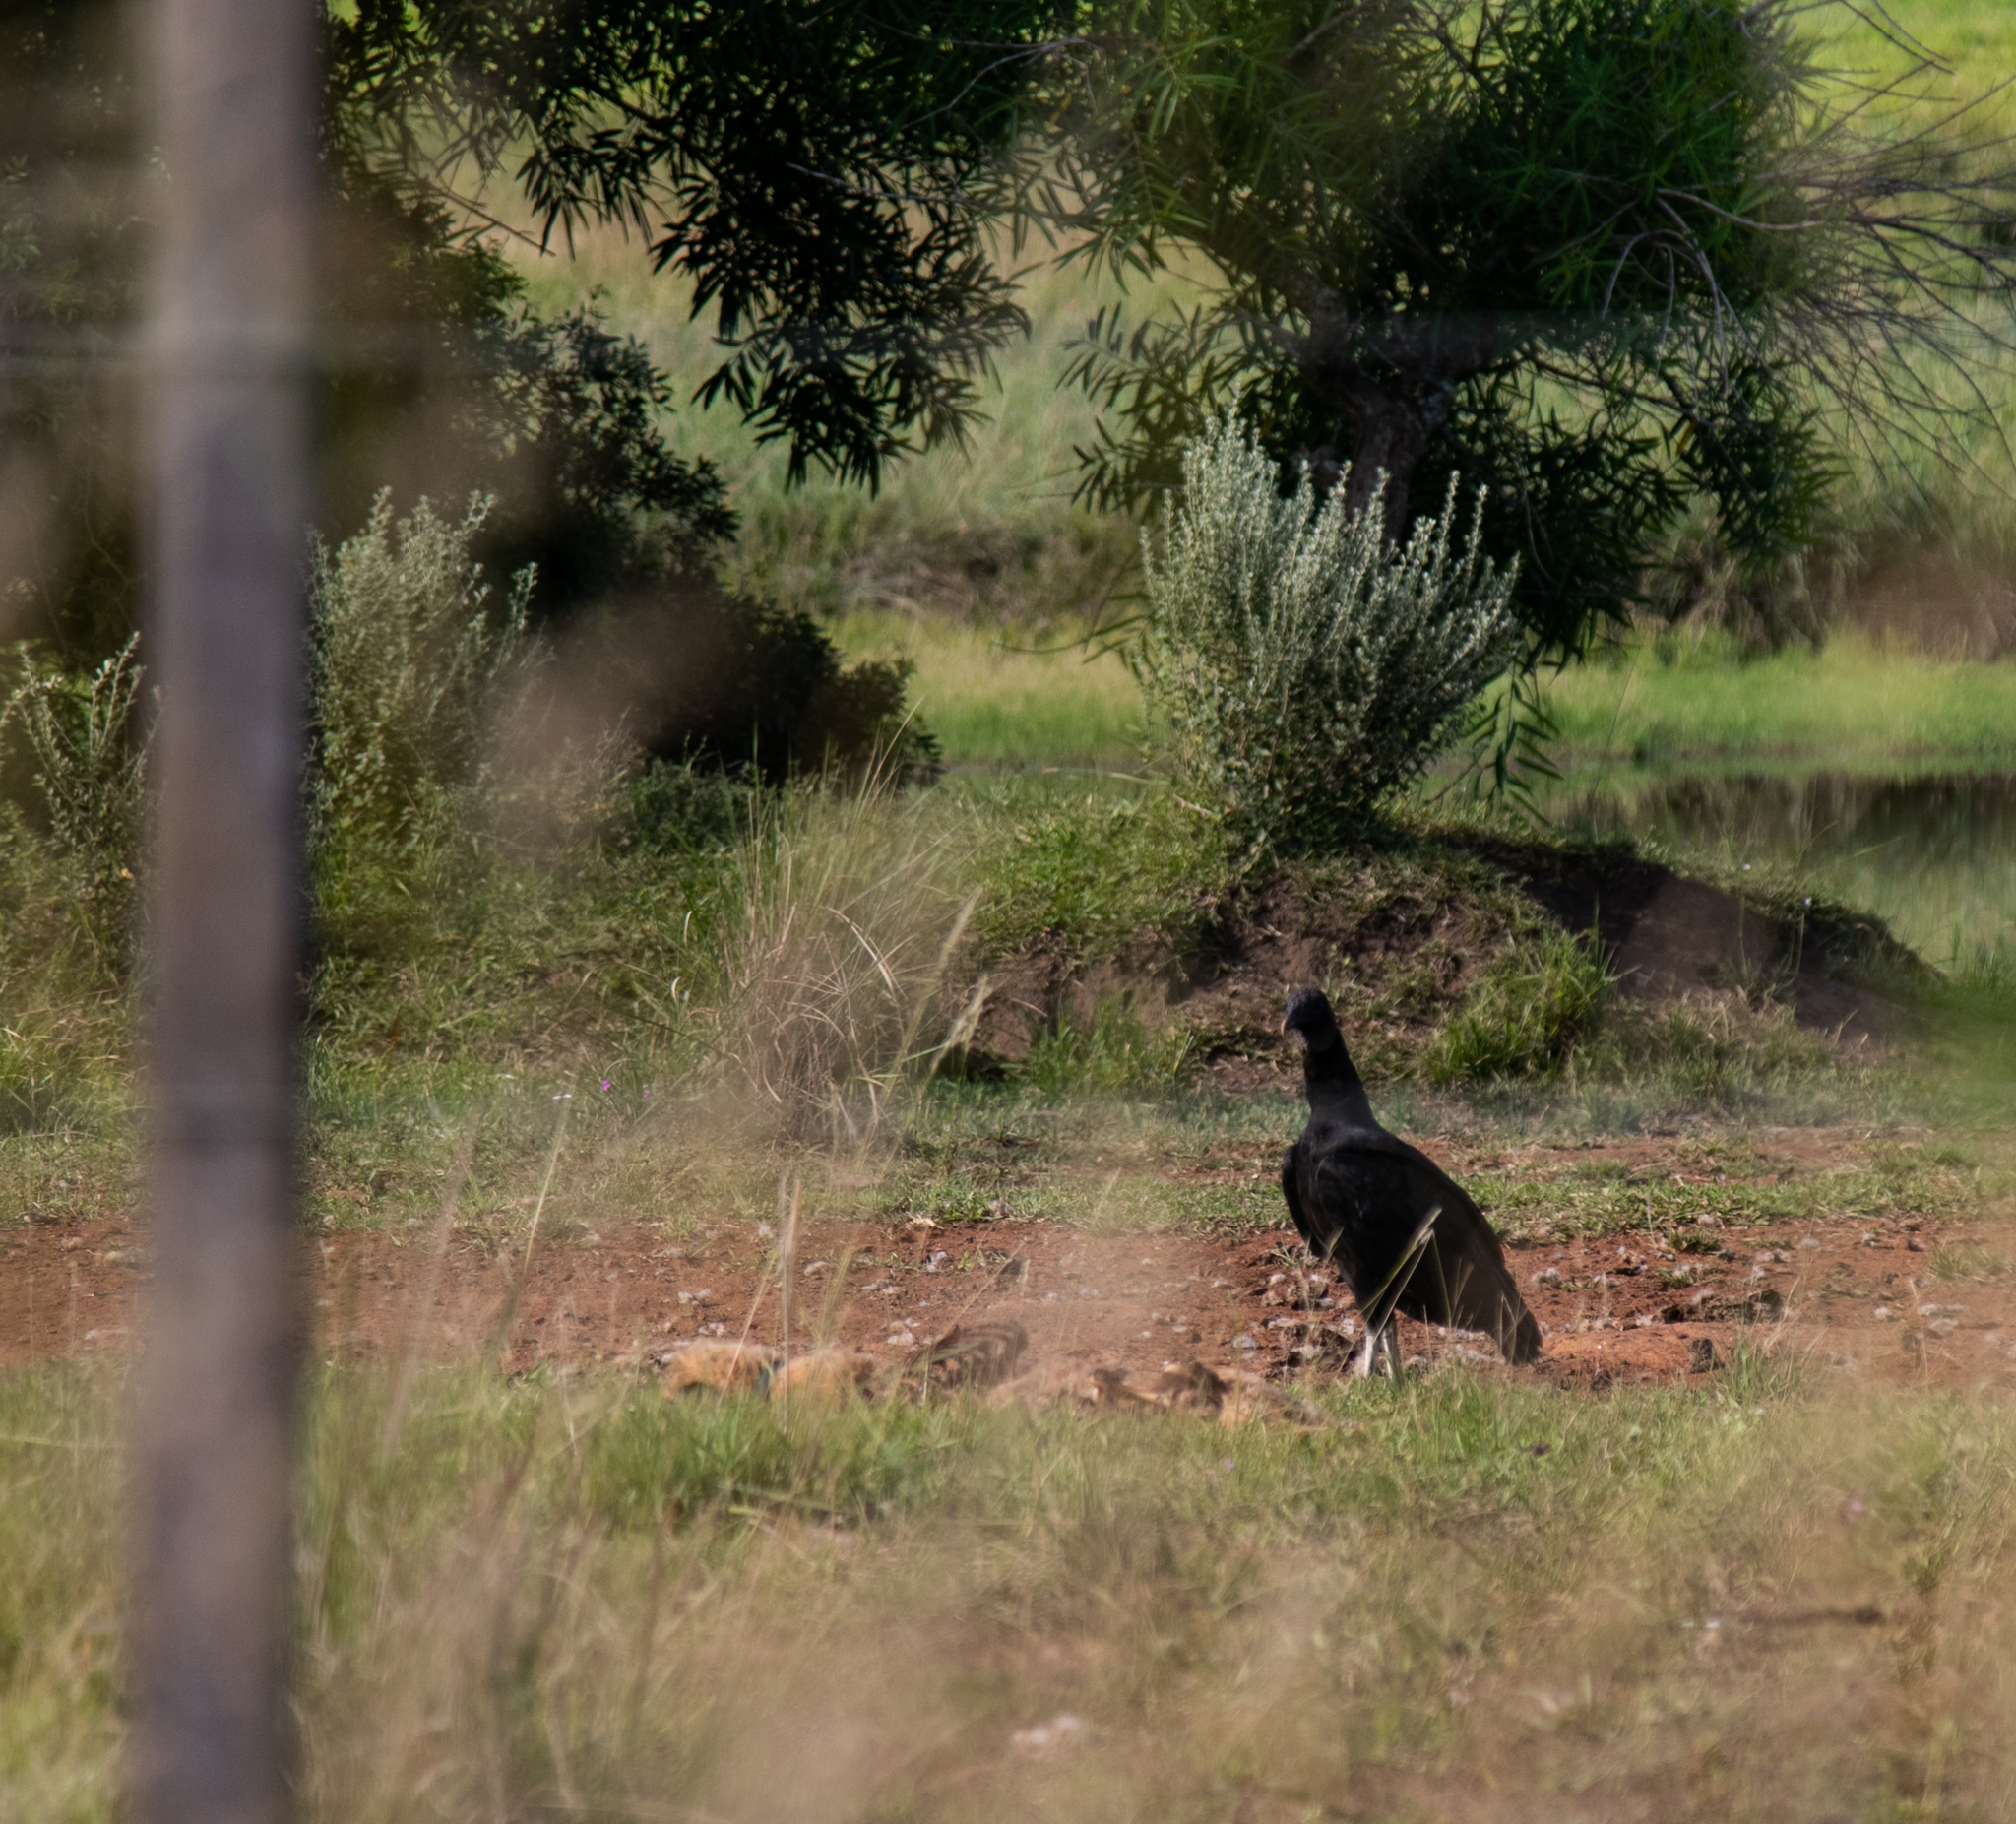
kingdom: Animalia
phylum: Chordata
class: Aves
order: Accipitriformes
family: Cathartidae
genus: Coragyps
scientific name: Coragyps atratus
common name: Black vulture
